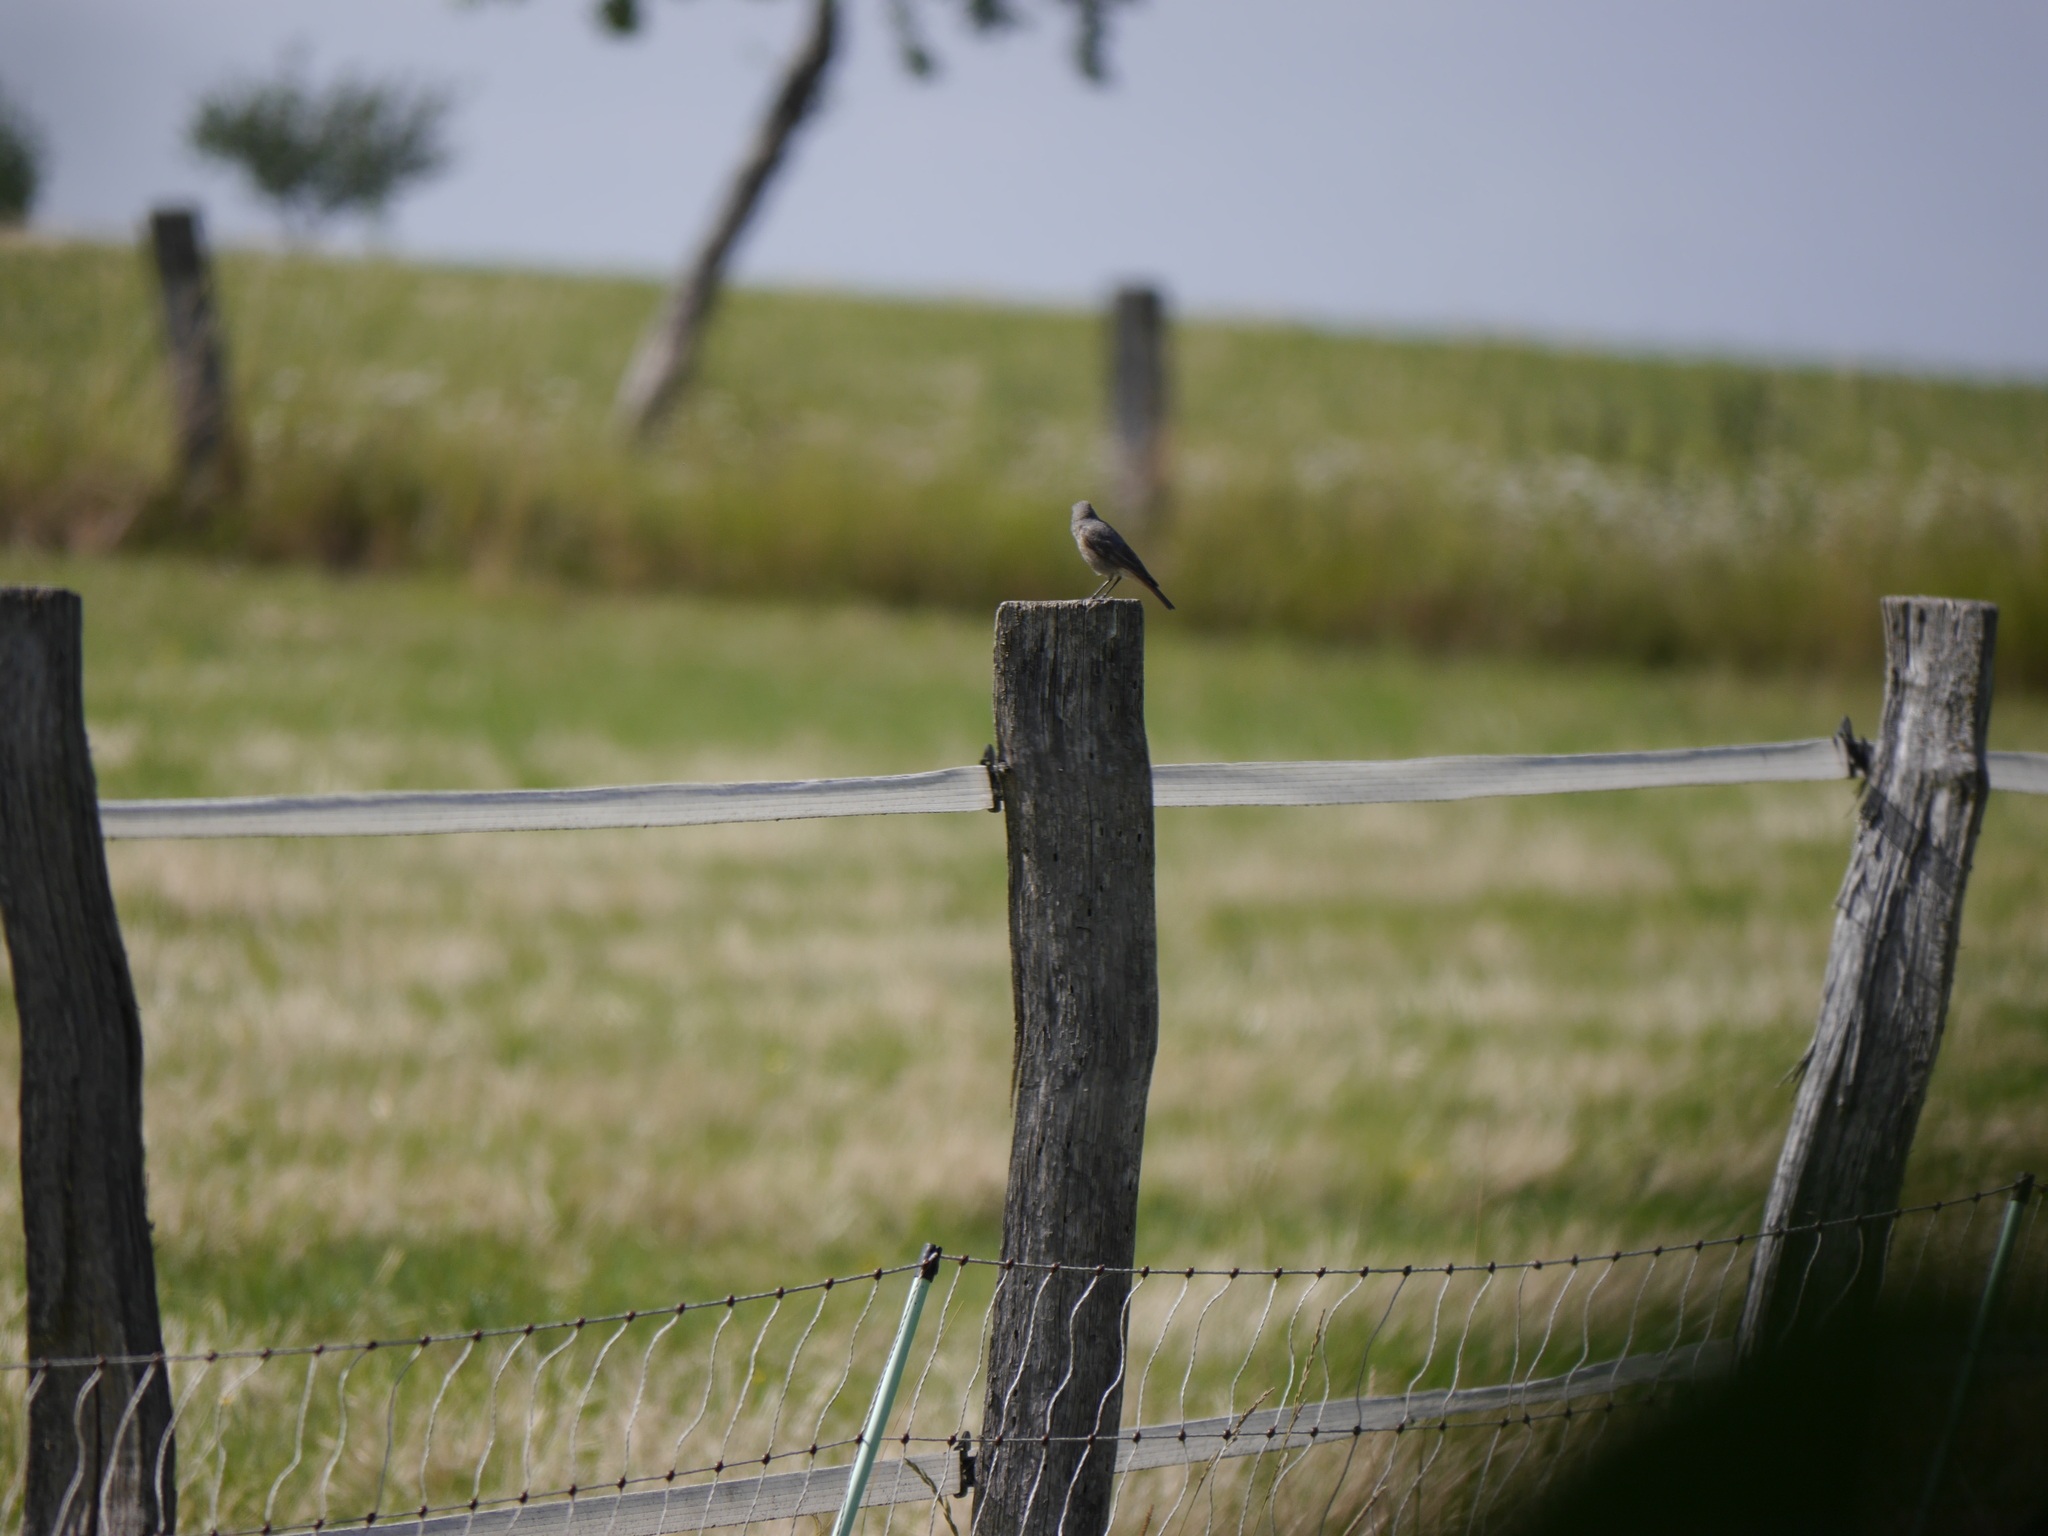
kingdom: Animalia
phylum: Chordata
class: Aves
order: Passeriformes
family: Muscicapidae
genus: Phoenicurus
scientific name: Phoenicurus ochruros
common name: Black redstart
